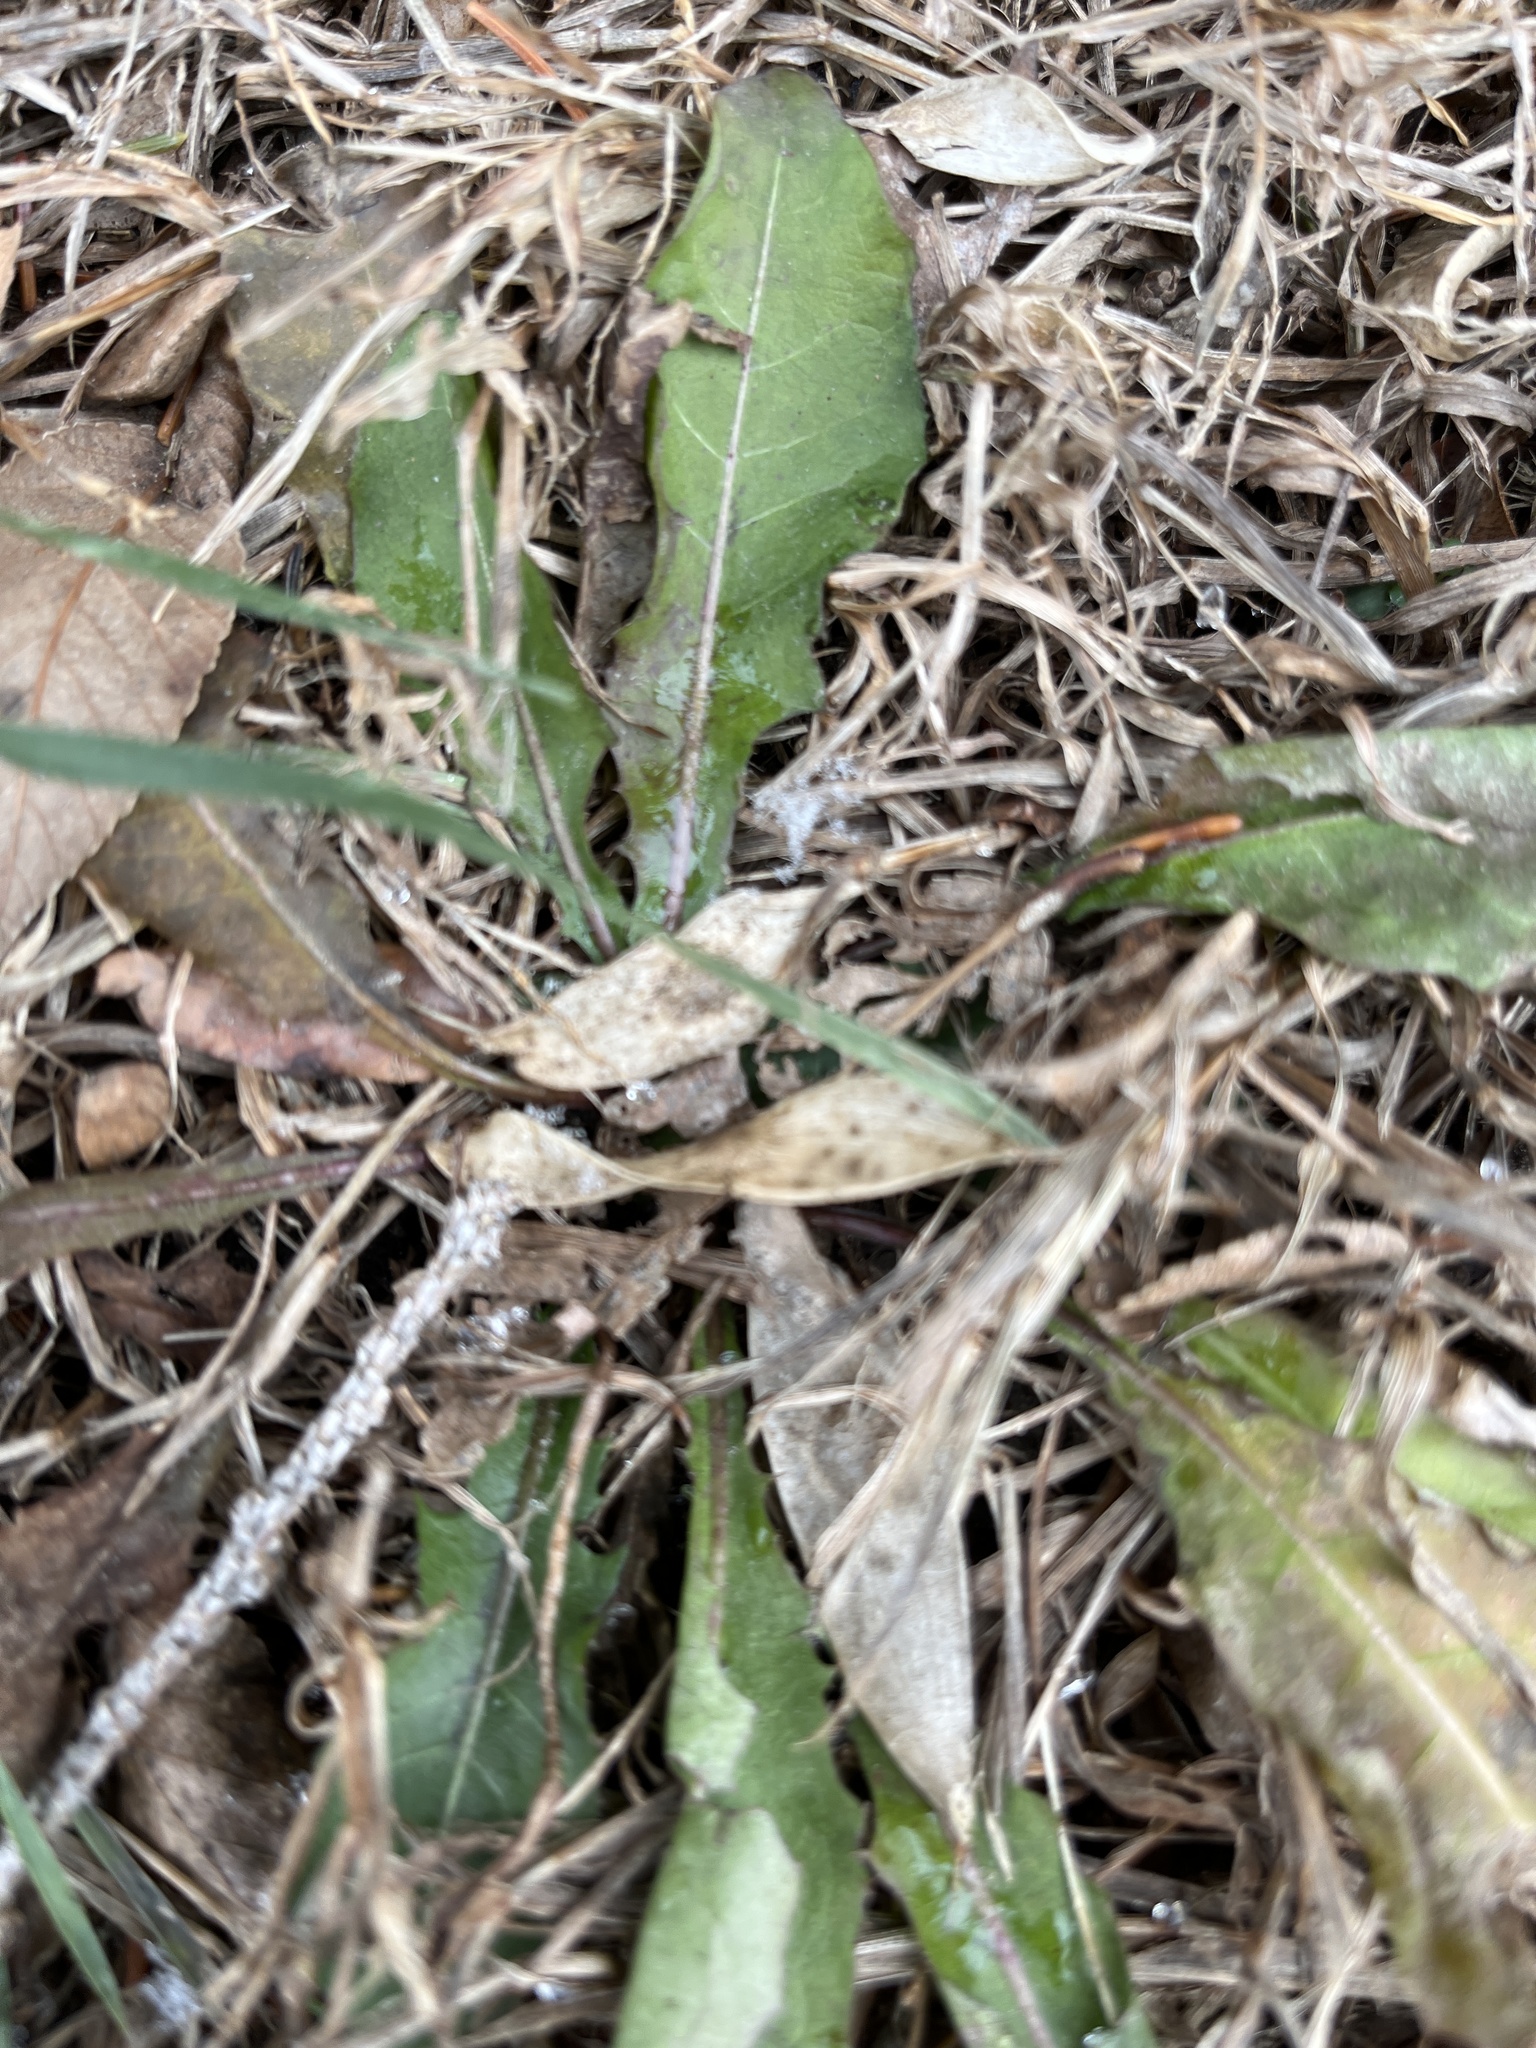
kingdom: Plantae
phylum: Tracheophyta
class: Magnoliopsida
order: Asterales
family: Asteraceae
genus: Taraxacum
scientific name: Taraxacum officinale
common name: Common dandelion
